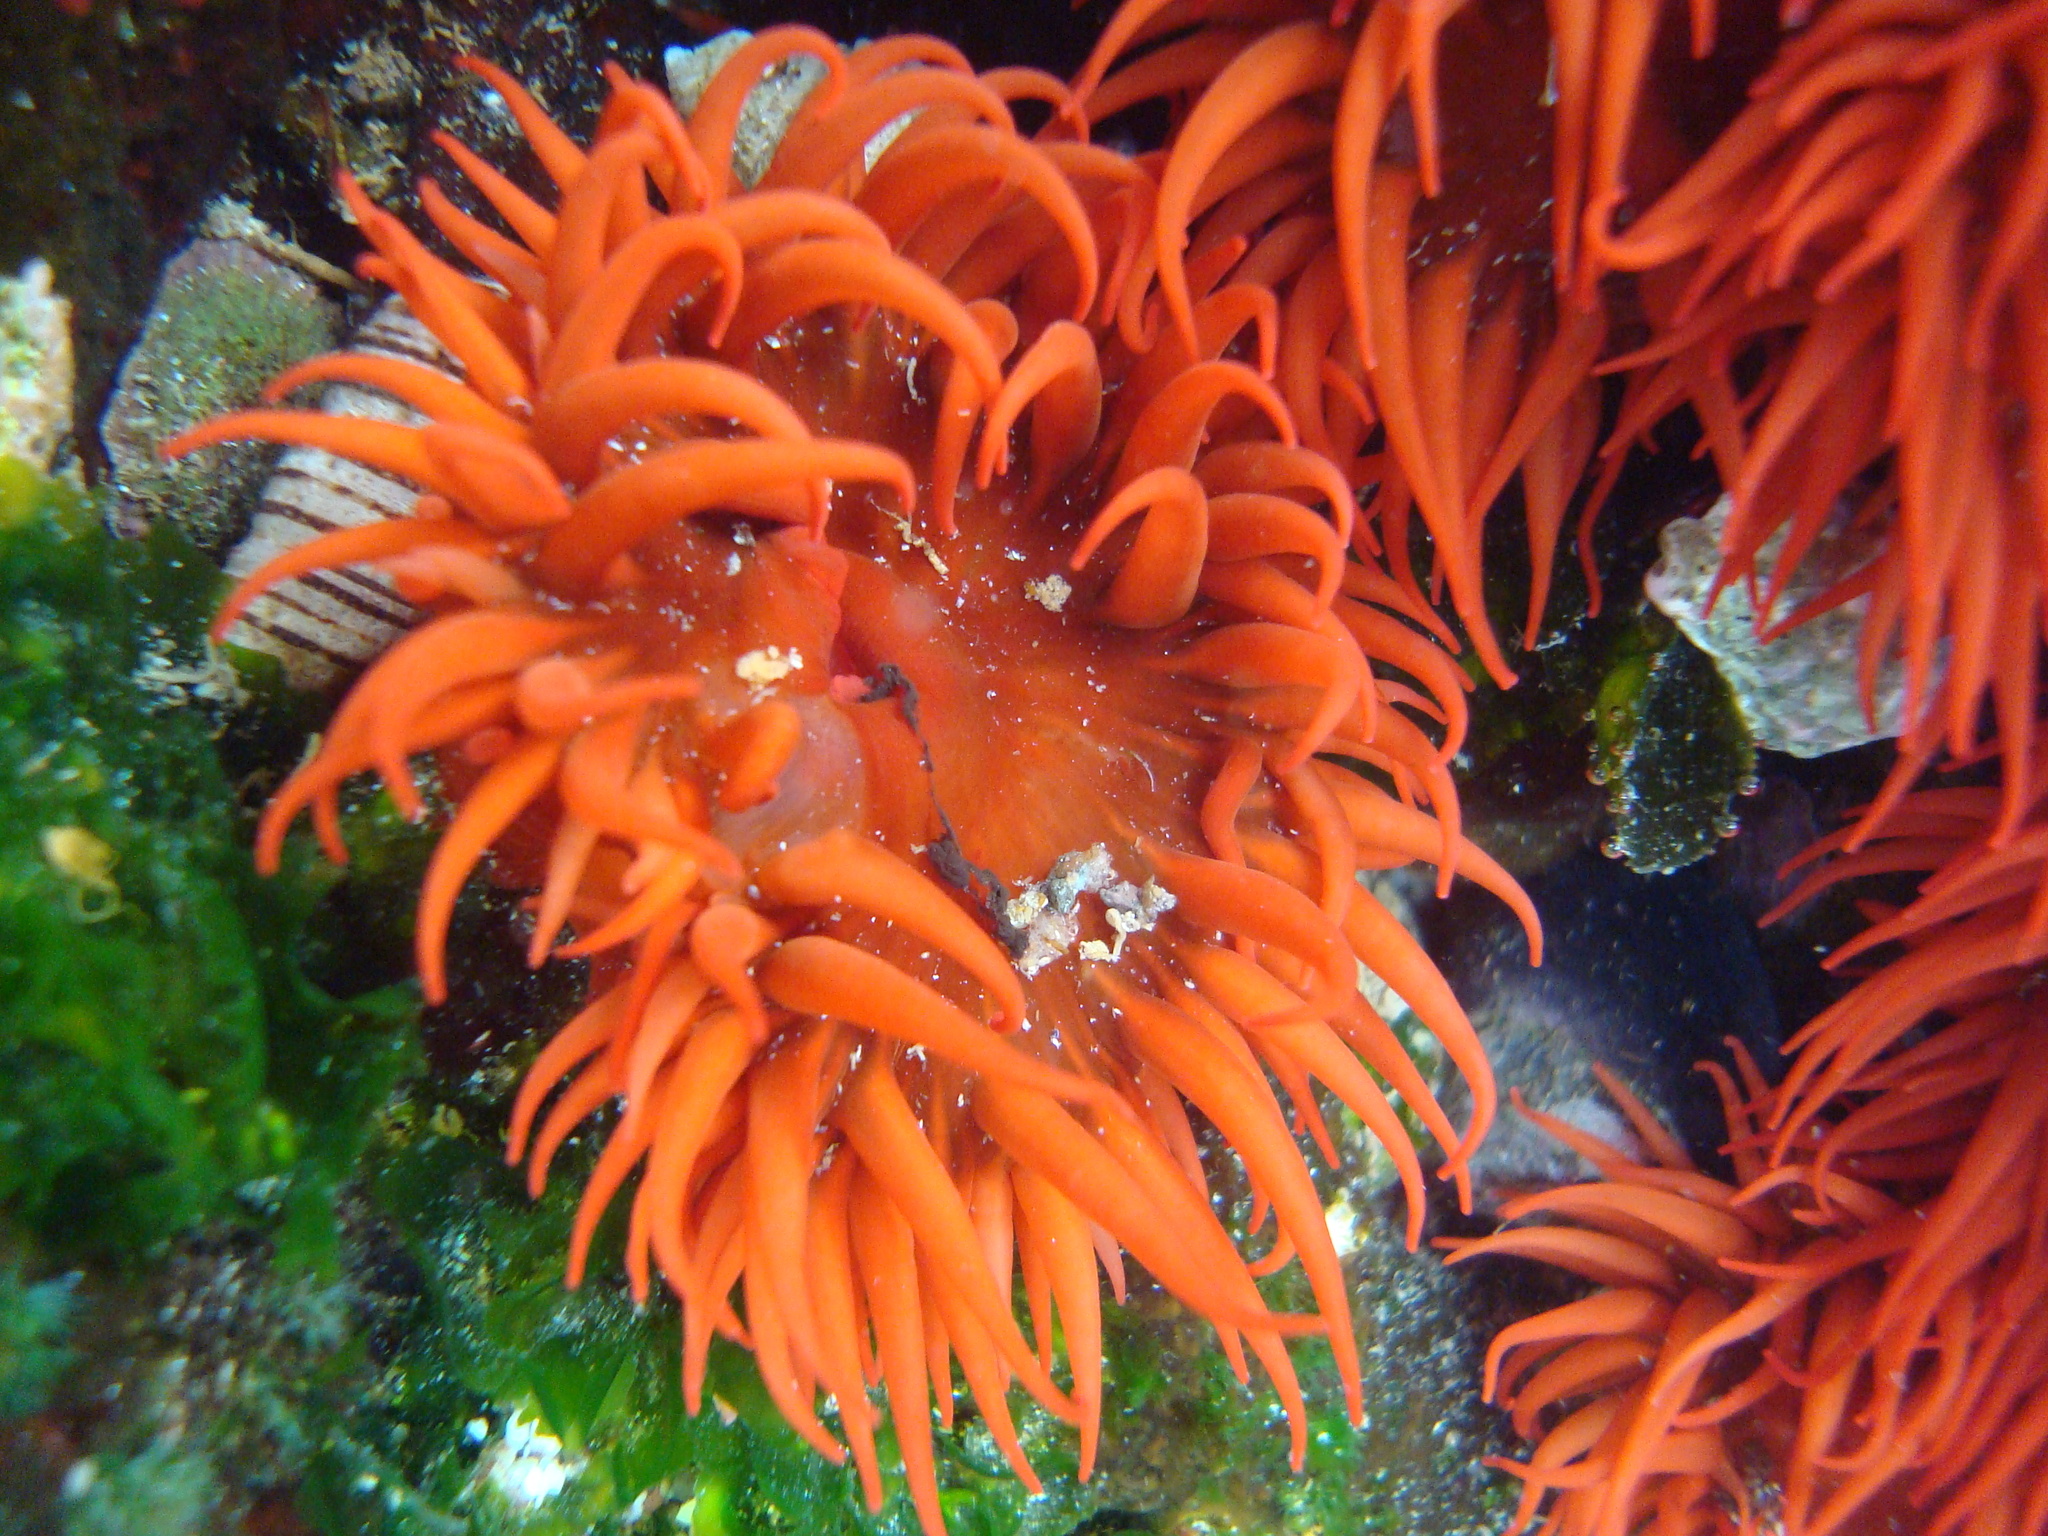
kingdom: Animalia
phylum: Cnidaria
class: Anthozoa
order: Actiniaria
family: Actiniidae
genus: Anemonia
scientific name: Anemonia alicemartinae
